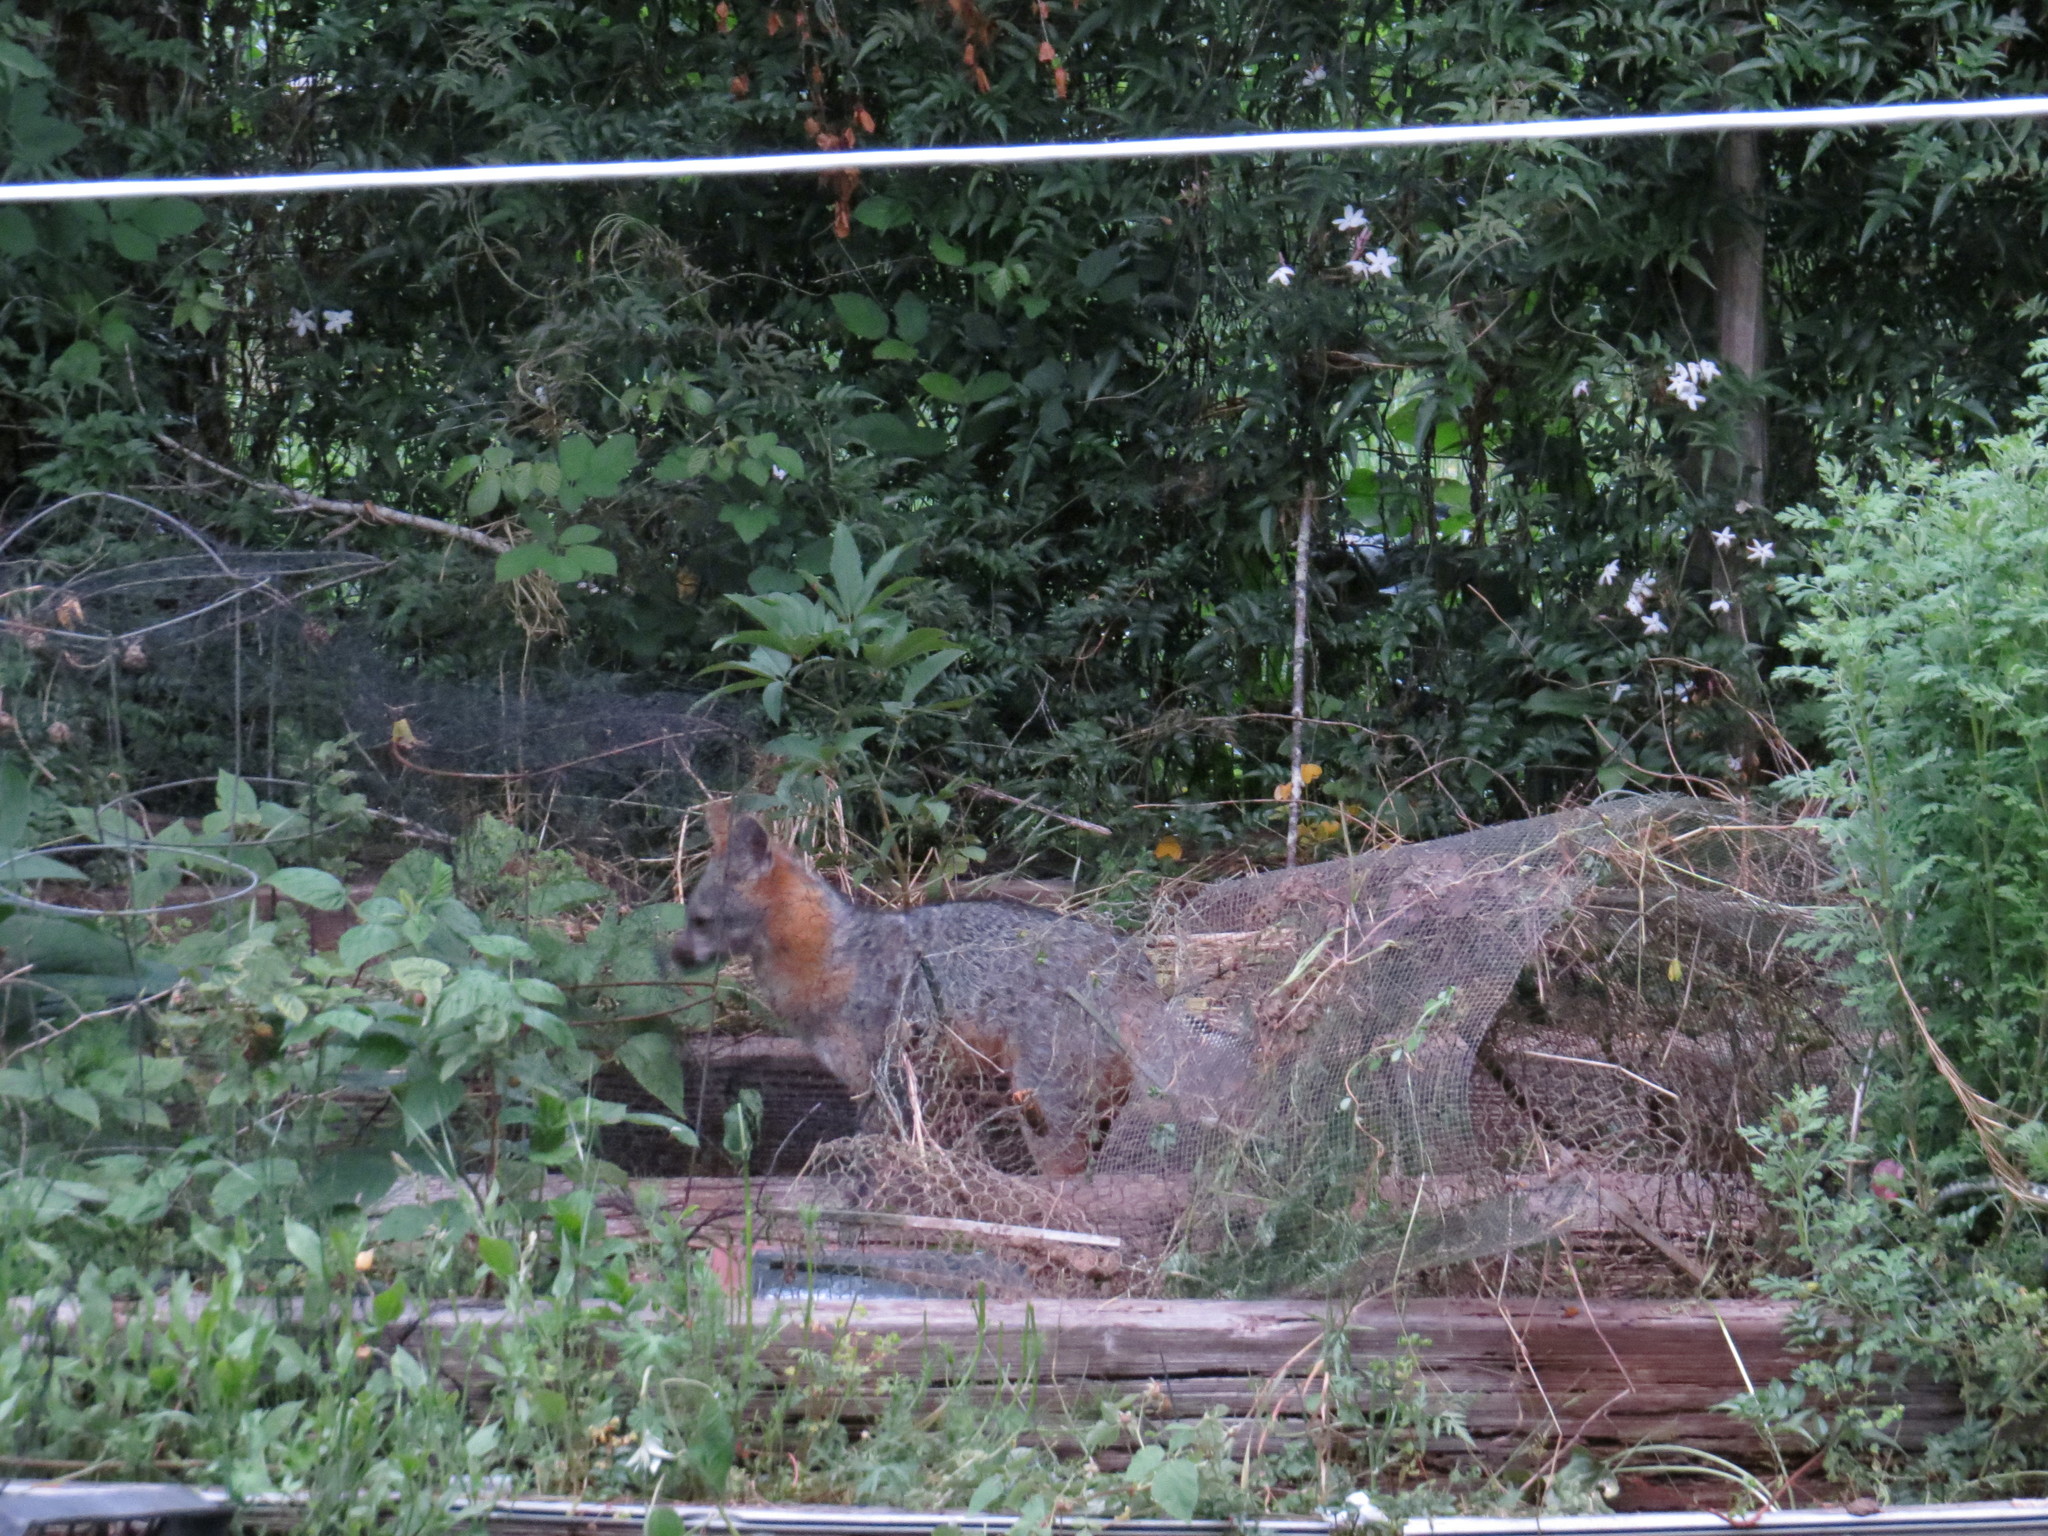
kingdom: Animalia
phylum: Chordata
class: Mammalia
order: Carnivora
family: Canidae
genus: Urocyon
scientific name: Urocyon cinereoargenteus
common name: Gray fox
